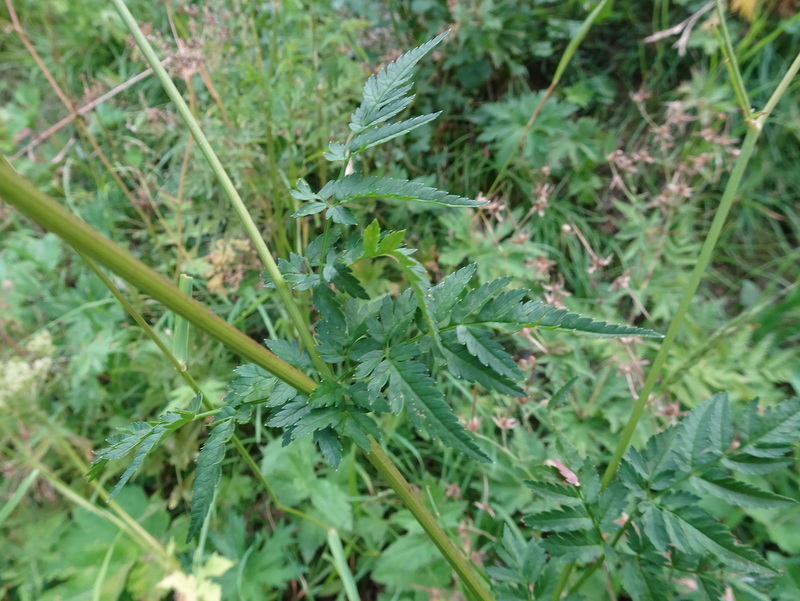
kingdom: Plantae
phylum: Tracheophyta
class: Magnoliopsida
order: Apiales
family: Apiaceae
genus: Anthriscus
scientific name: Anthriscus sylvestris
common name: Cow parsley
